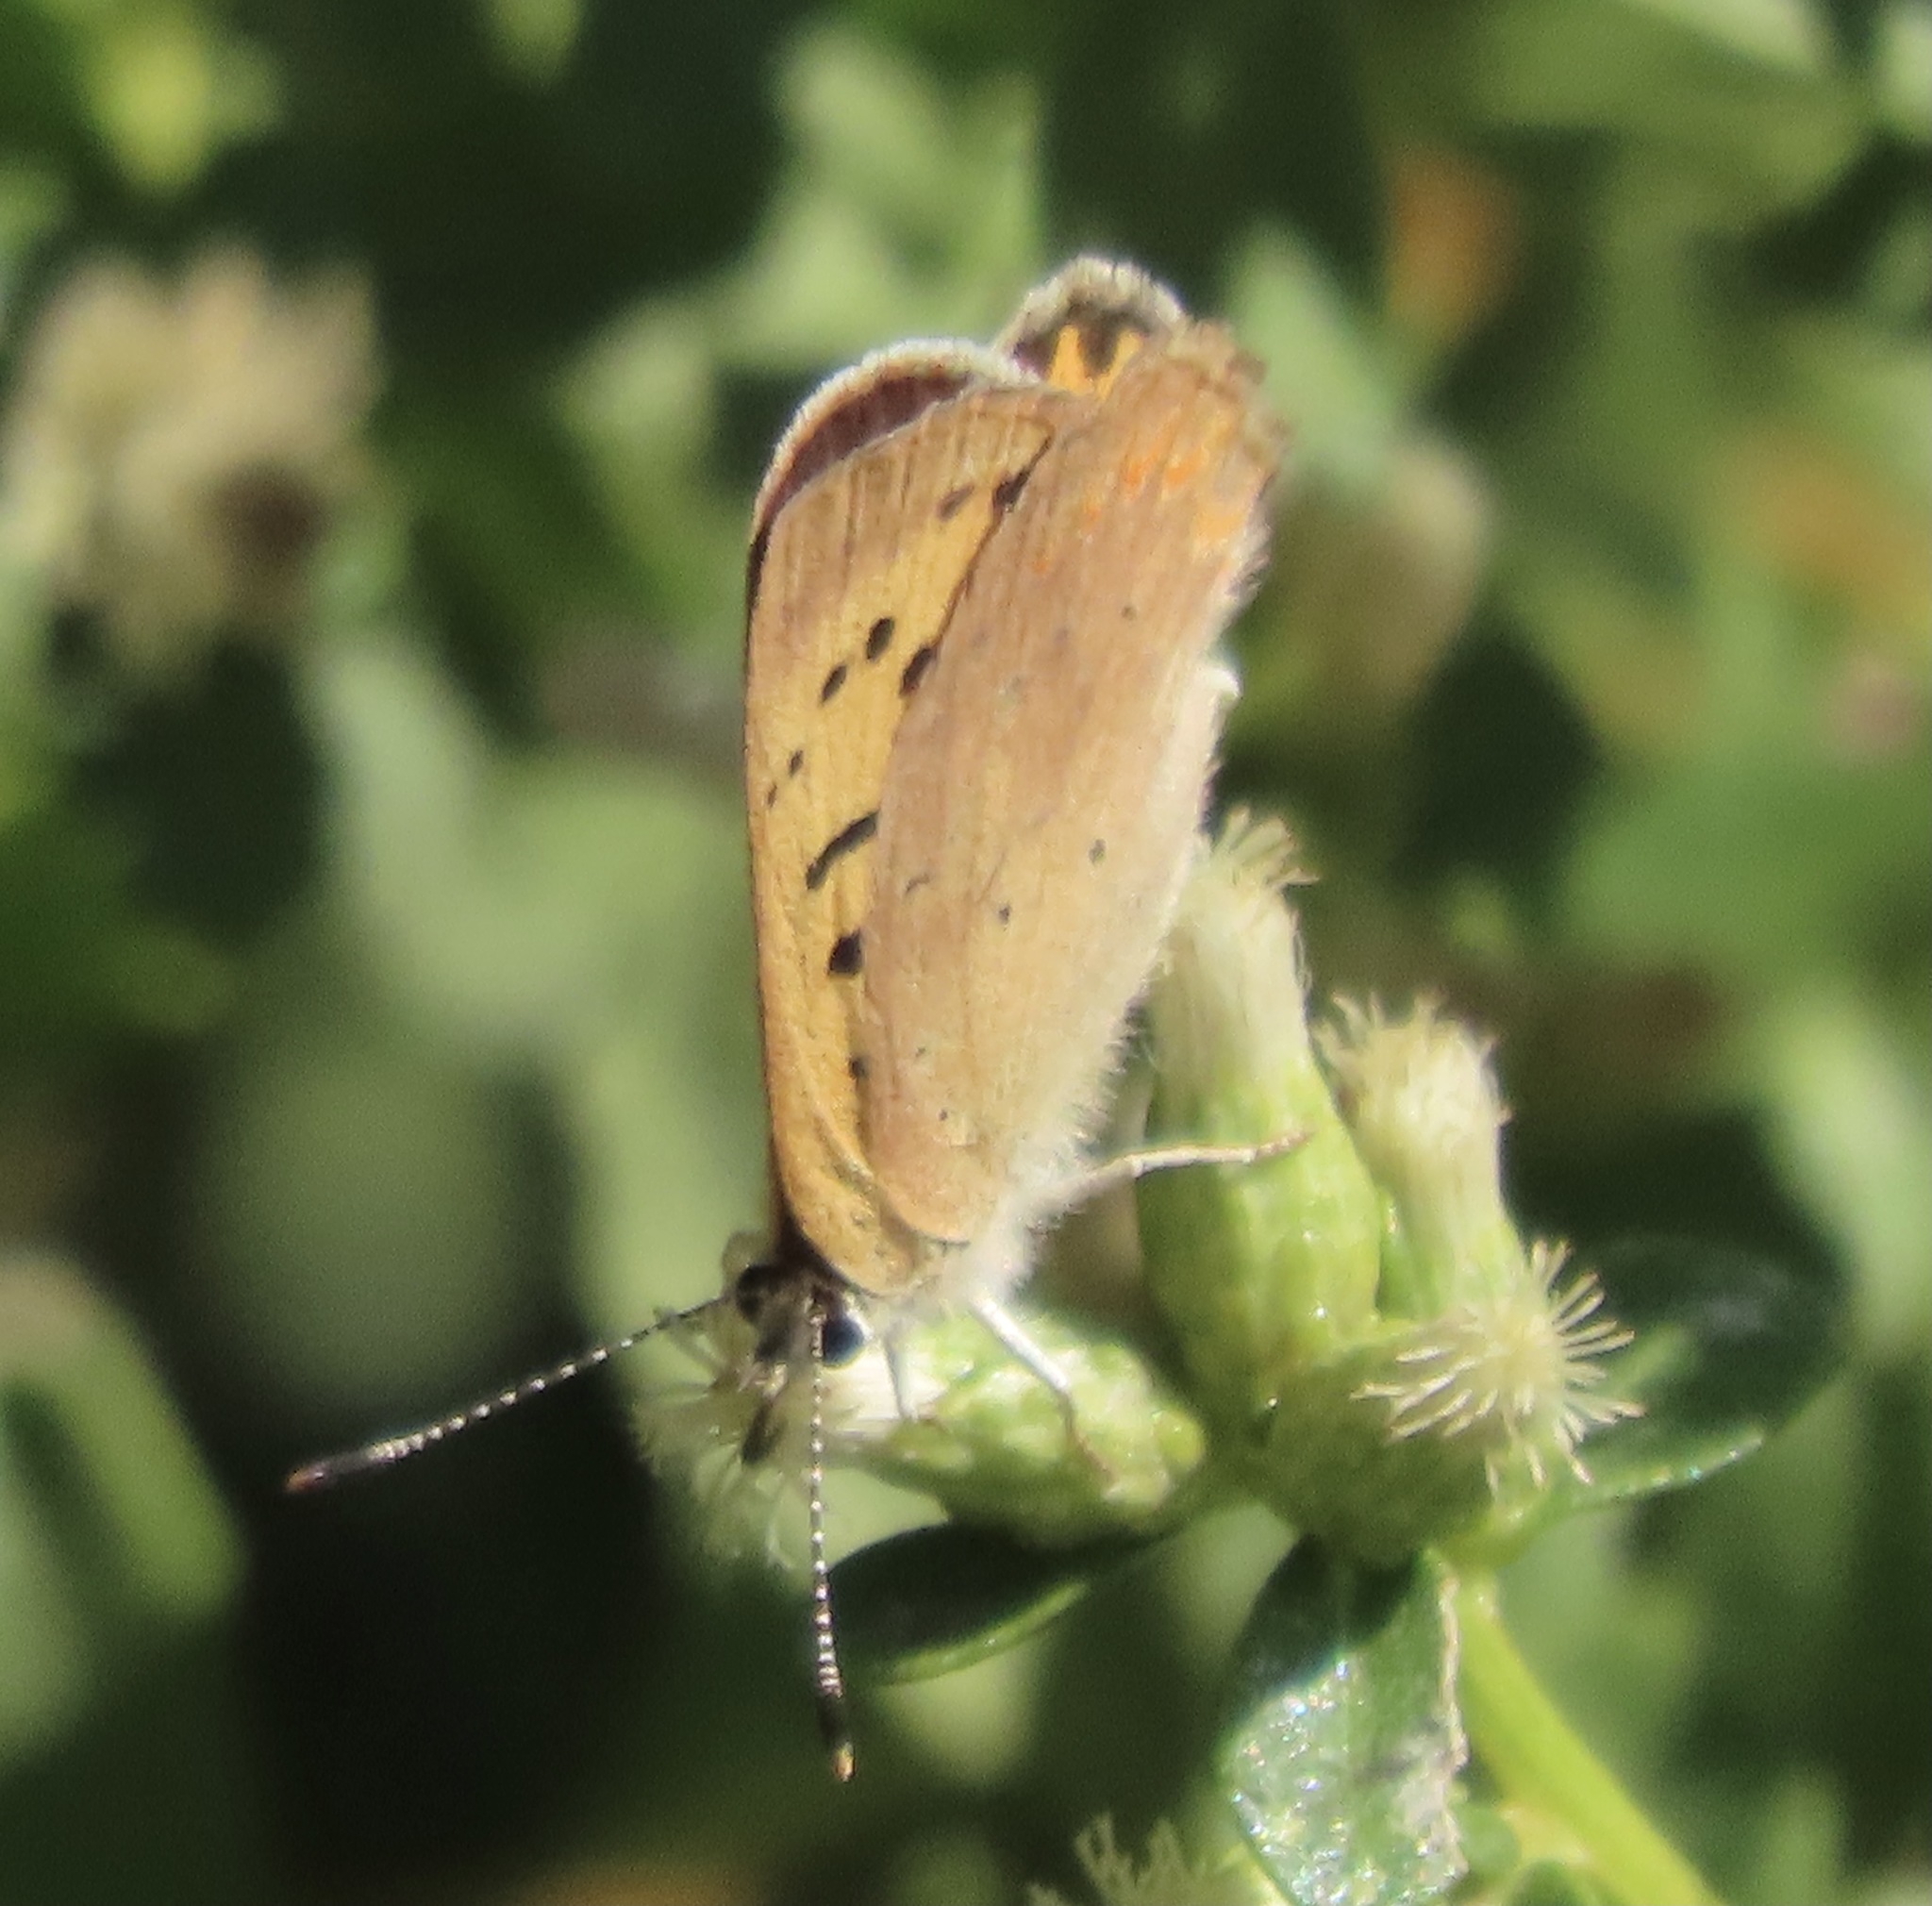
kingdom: Animalia
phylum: Arthropoda
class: Insecta
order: Lepidoptera
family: Lycaenidae
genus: Tharsalea
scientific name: Tharsalea helloides
